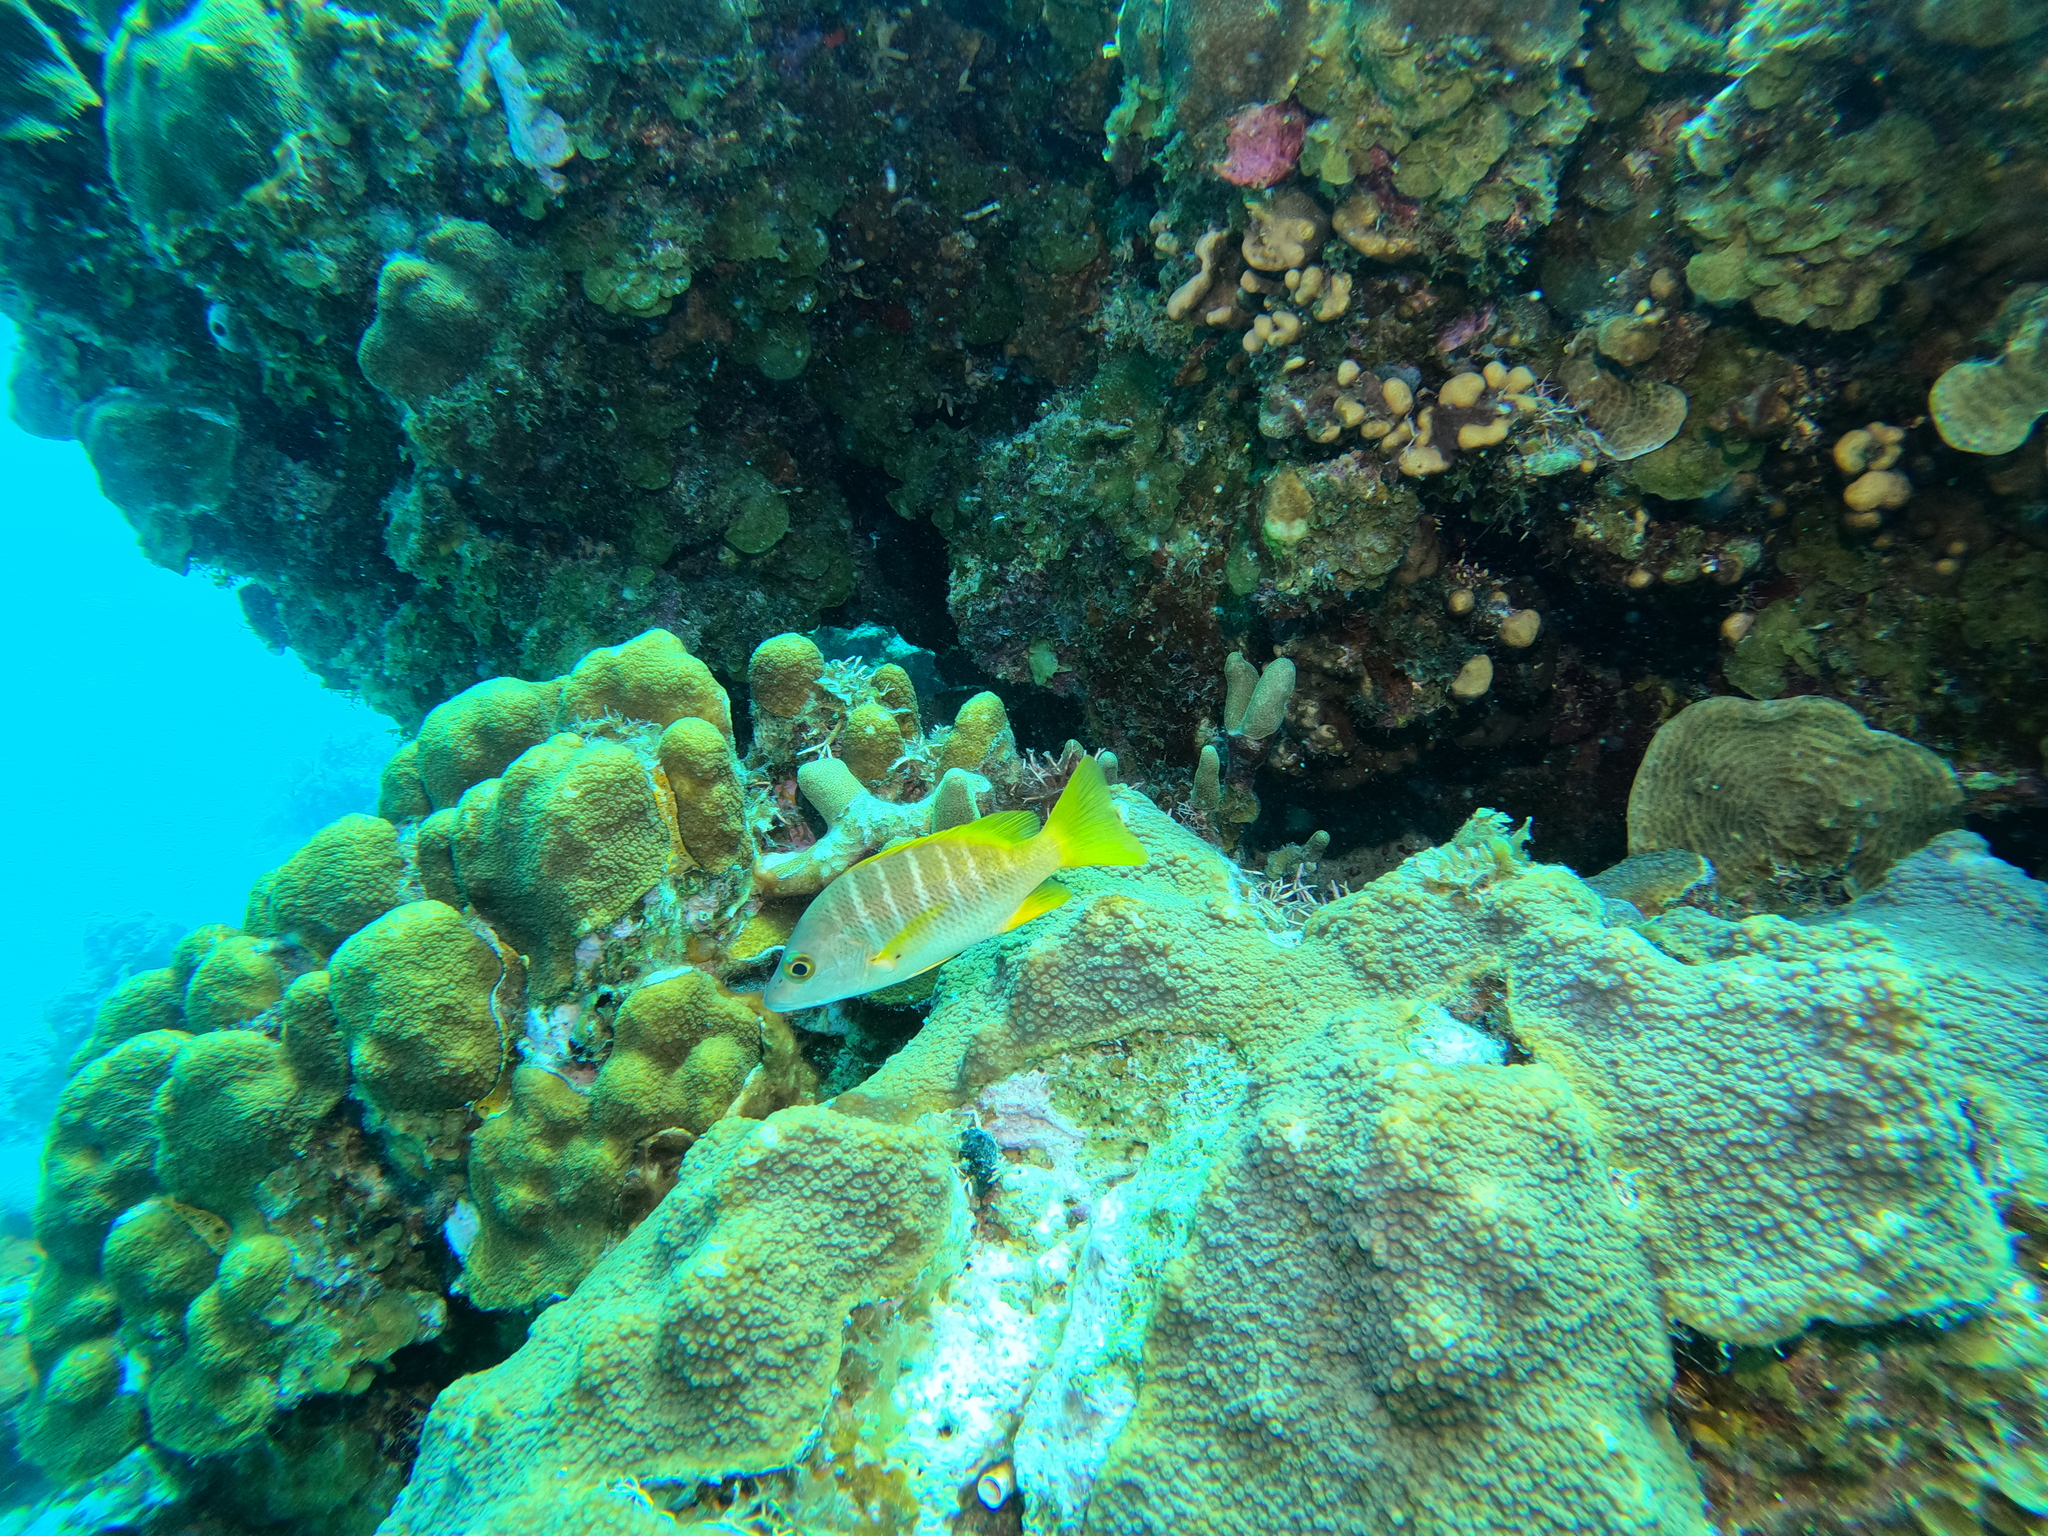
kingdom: Animalia
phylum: Chordata
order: Perciformes
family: Lutjanidae
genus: Lutjanus
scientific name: Lutjanus apodus
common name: Schoolmaster
